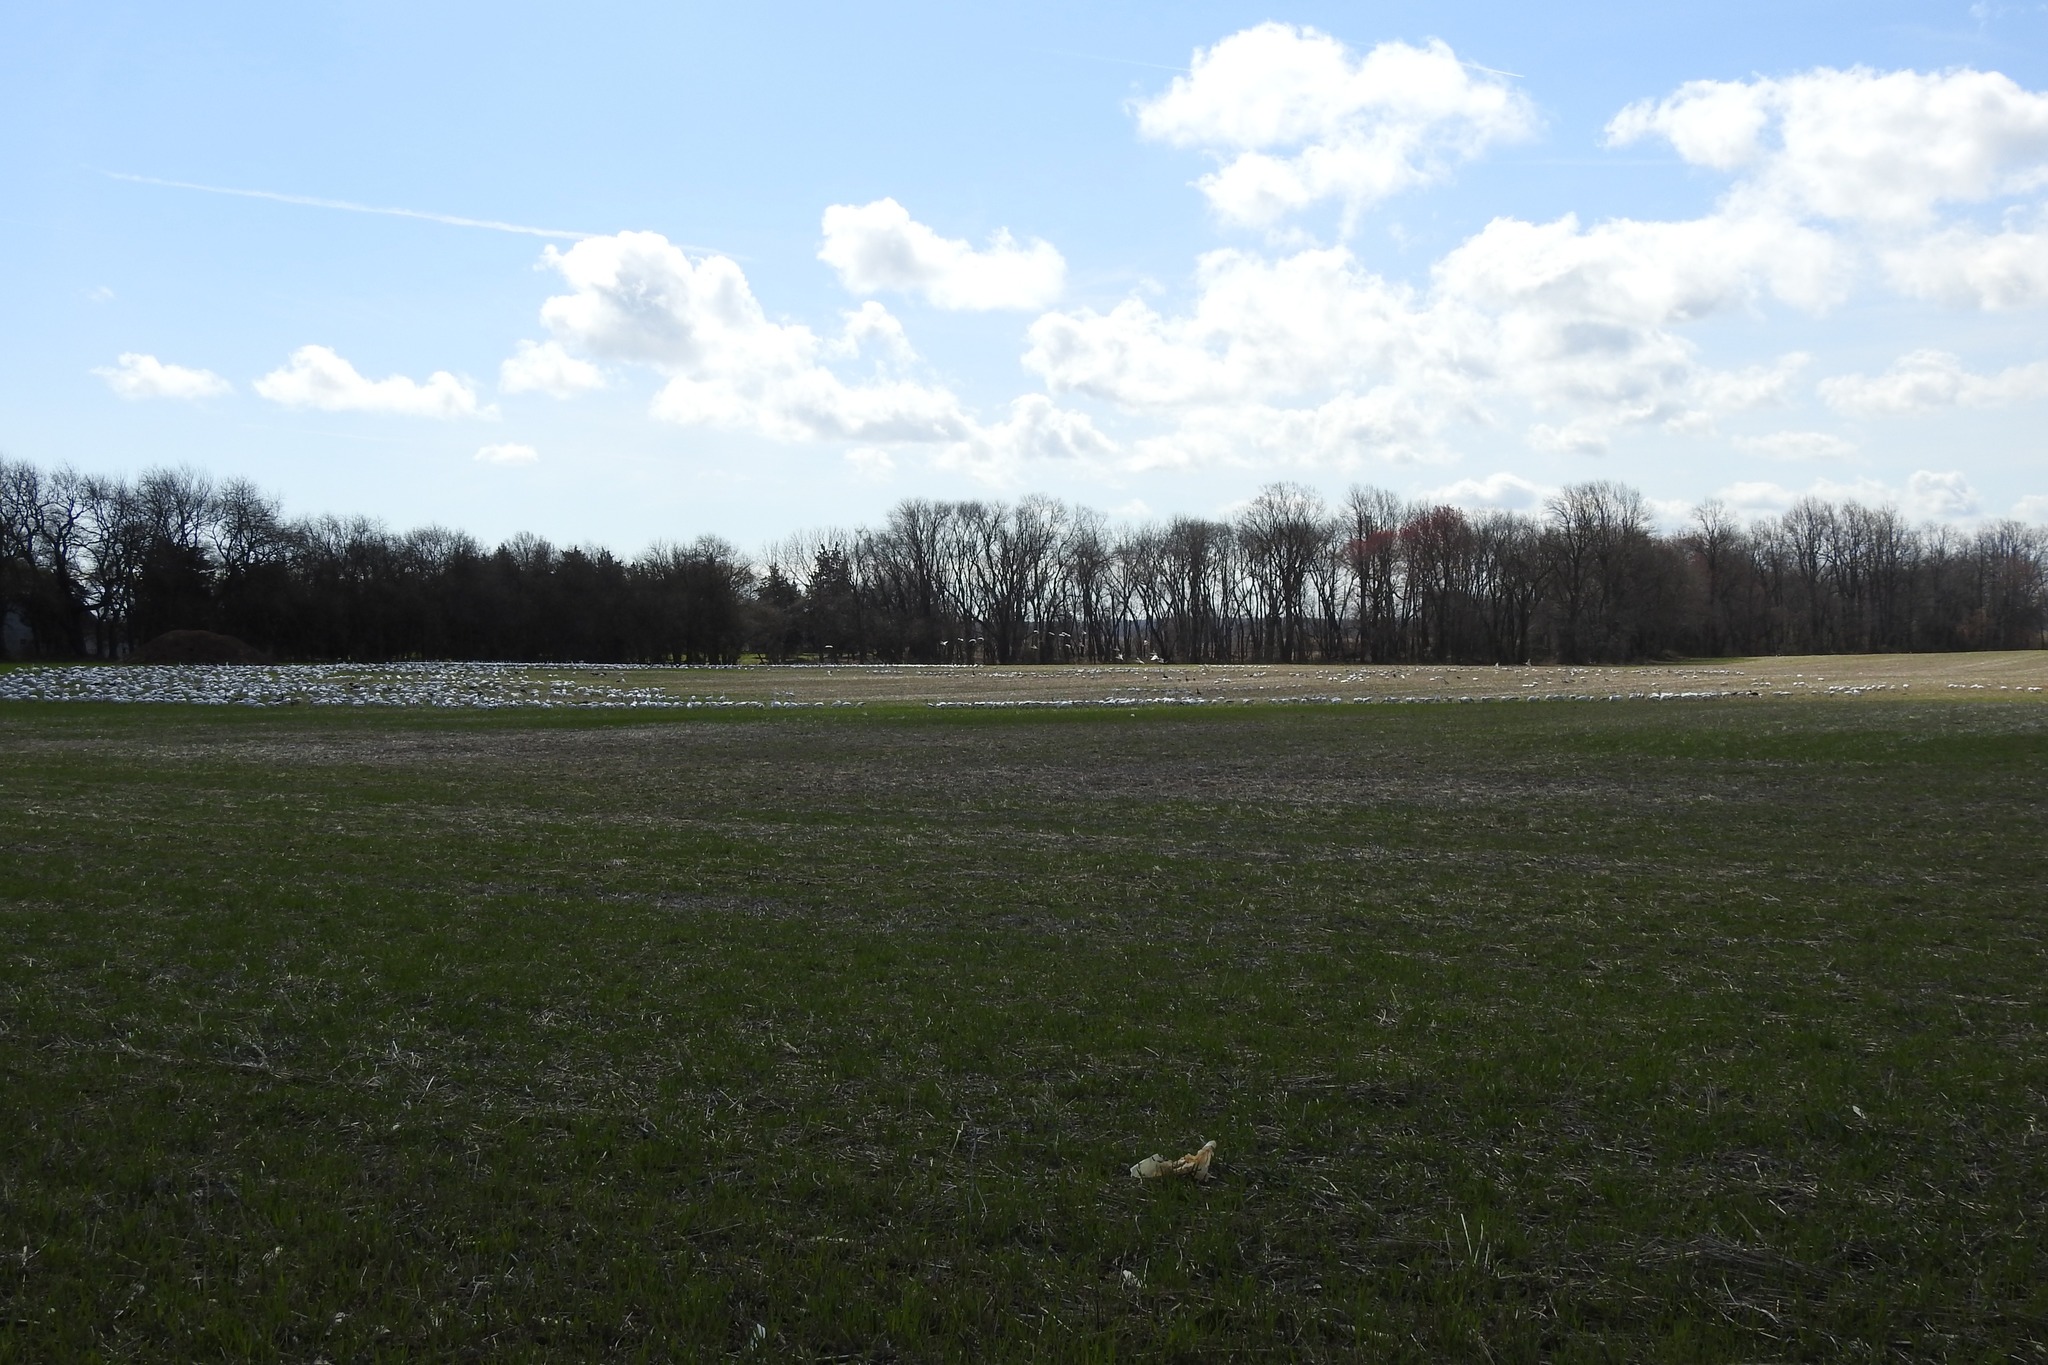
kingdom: Animalia
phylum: Chordata
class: Aves
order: Anseriformes
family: Anatidae
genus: Anser
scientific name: Anser caerulescens
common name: Snow goose
